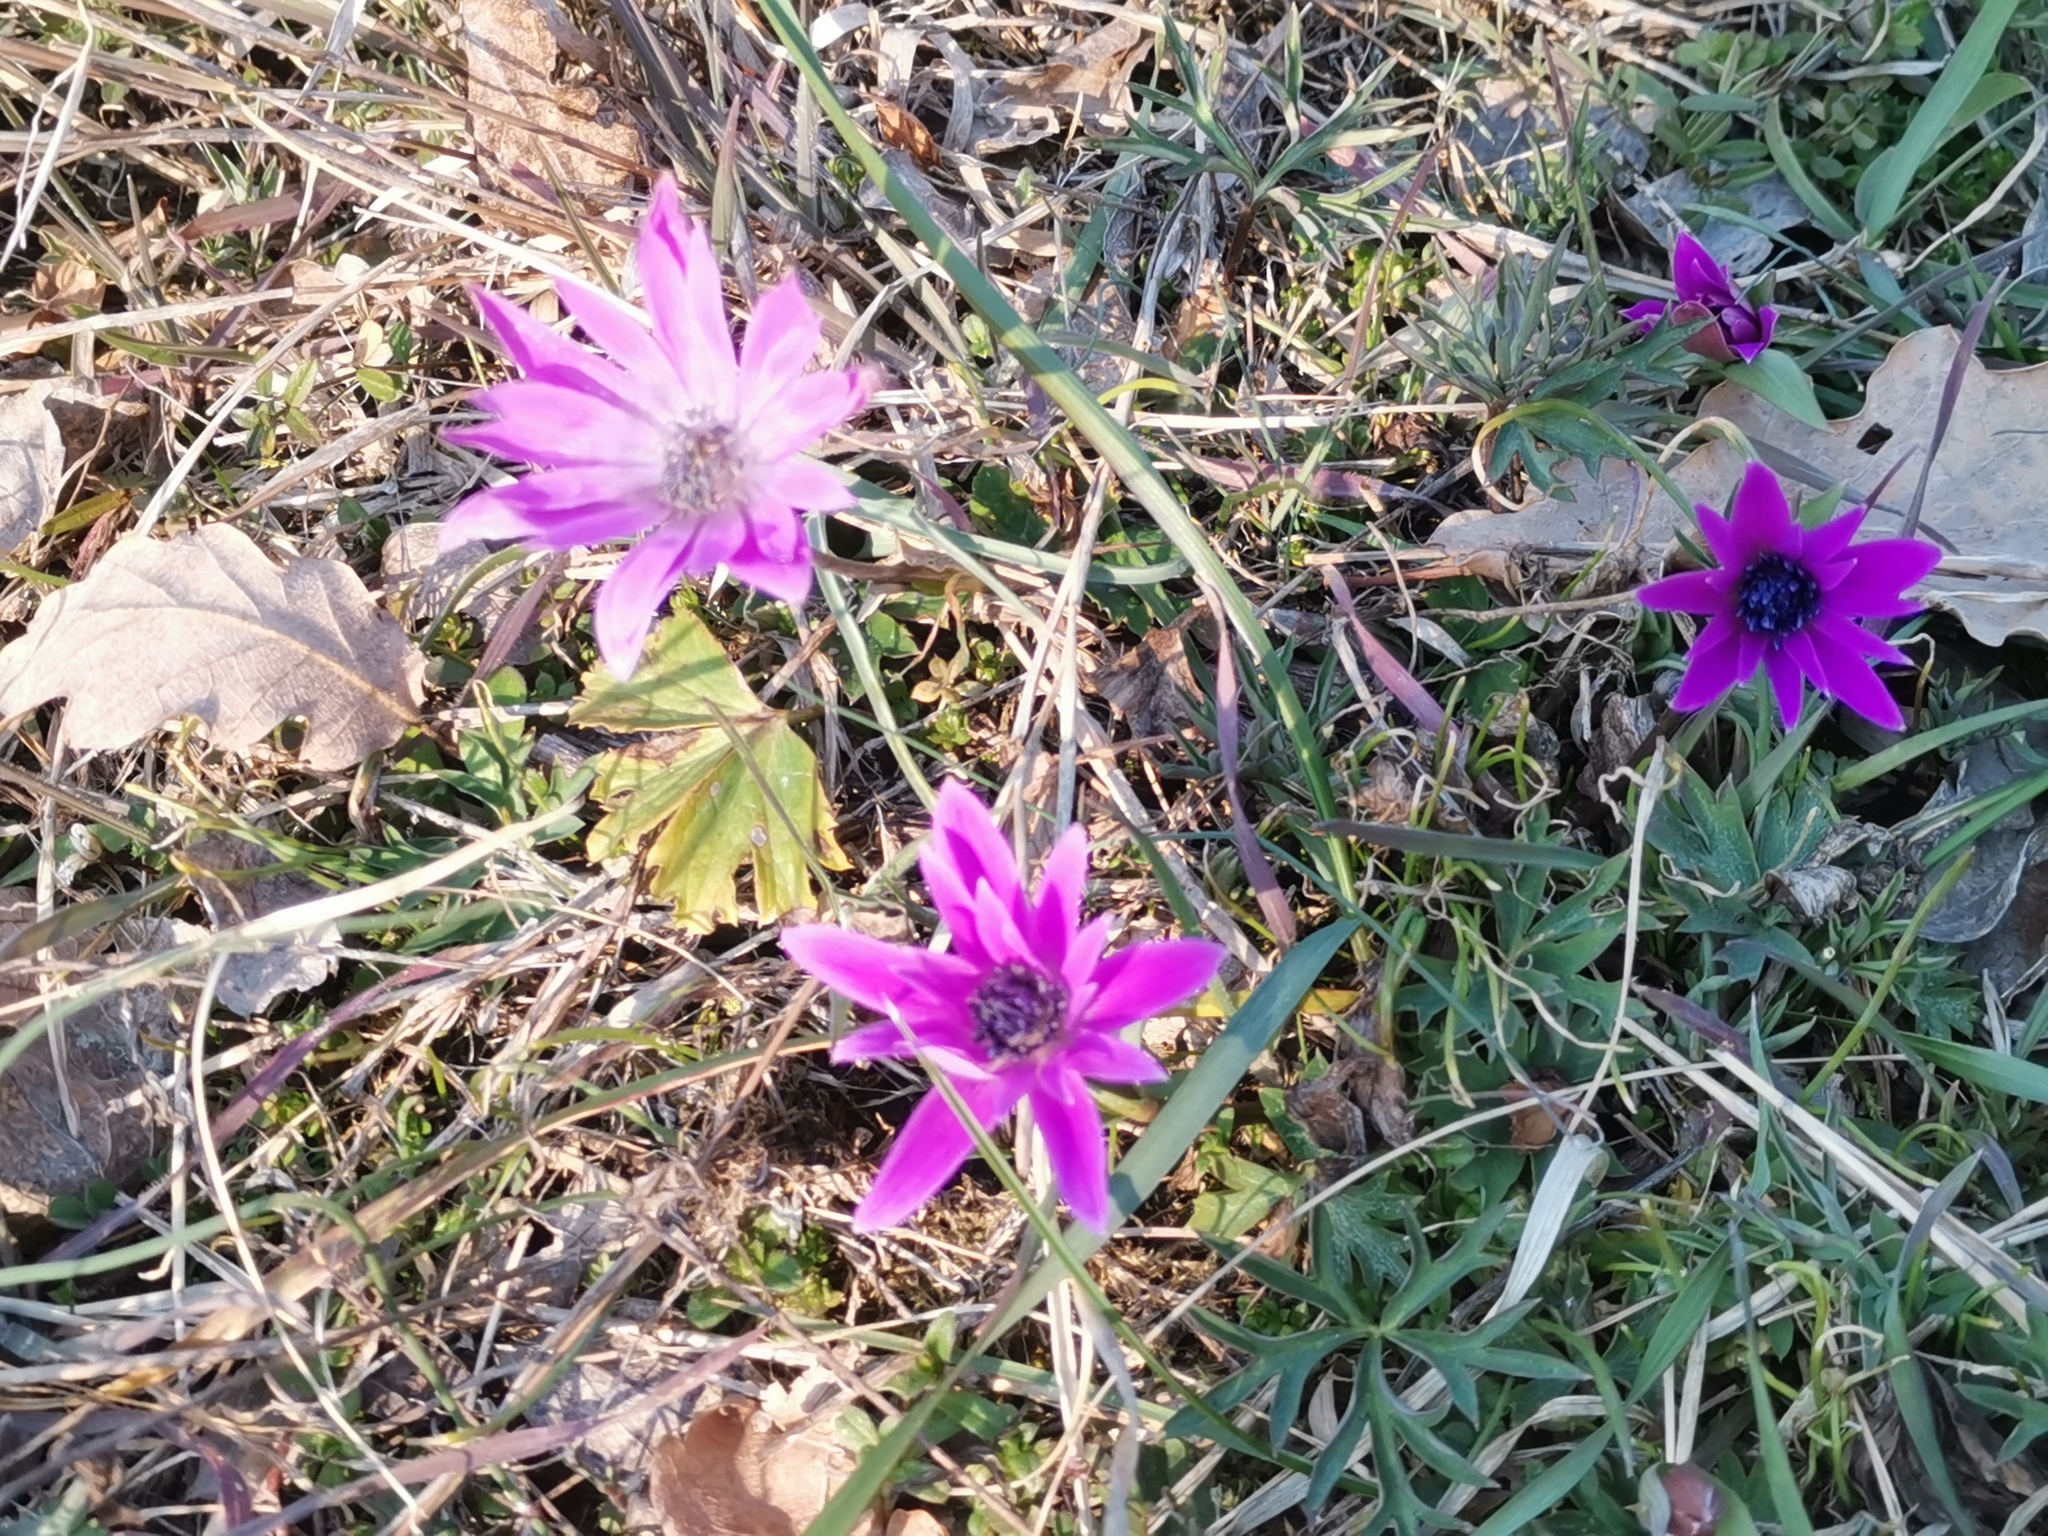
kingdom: Plantae
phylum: Tracheophyta
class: Magnoliopsida
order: Ranunculales
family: Ranunculaceae
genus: Anemone
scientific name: Anemone hortensis
